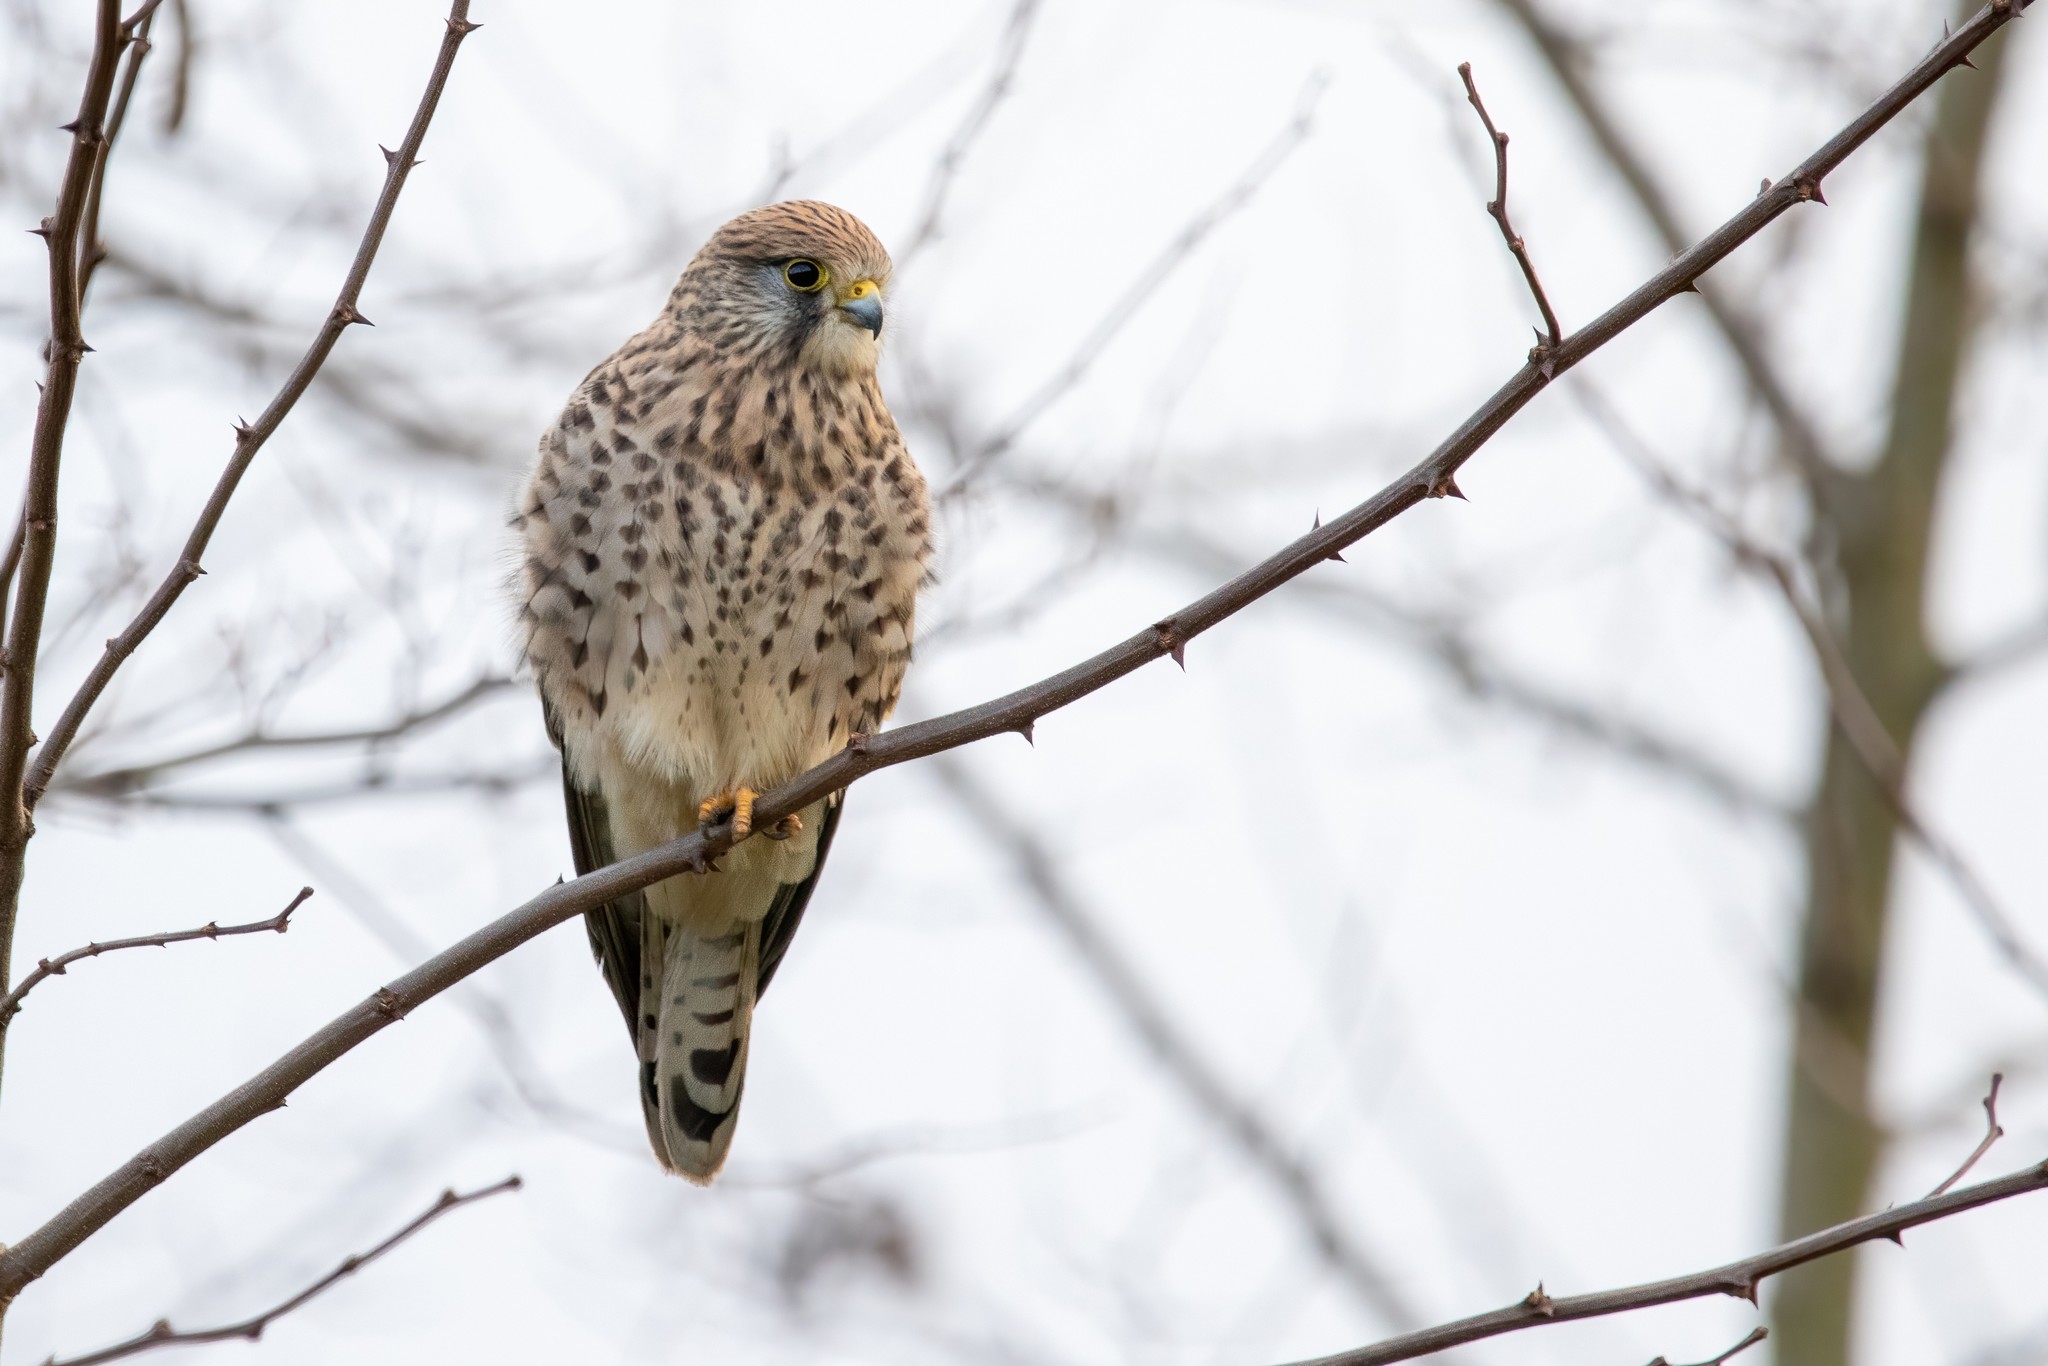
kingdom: Animalia
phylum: Chordata
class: Aves
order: Falconiformes
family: Falconidae
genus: Falco
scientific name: Falco tinnunculus
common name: Common kestrel
